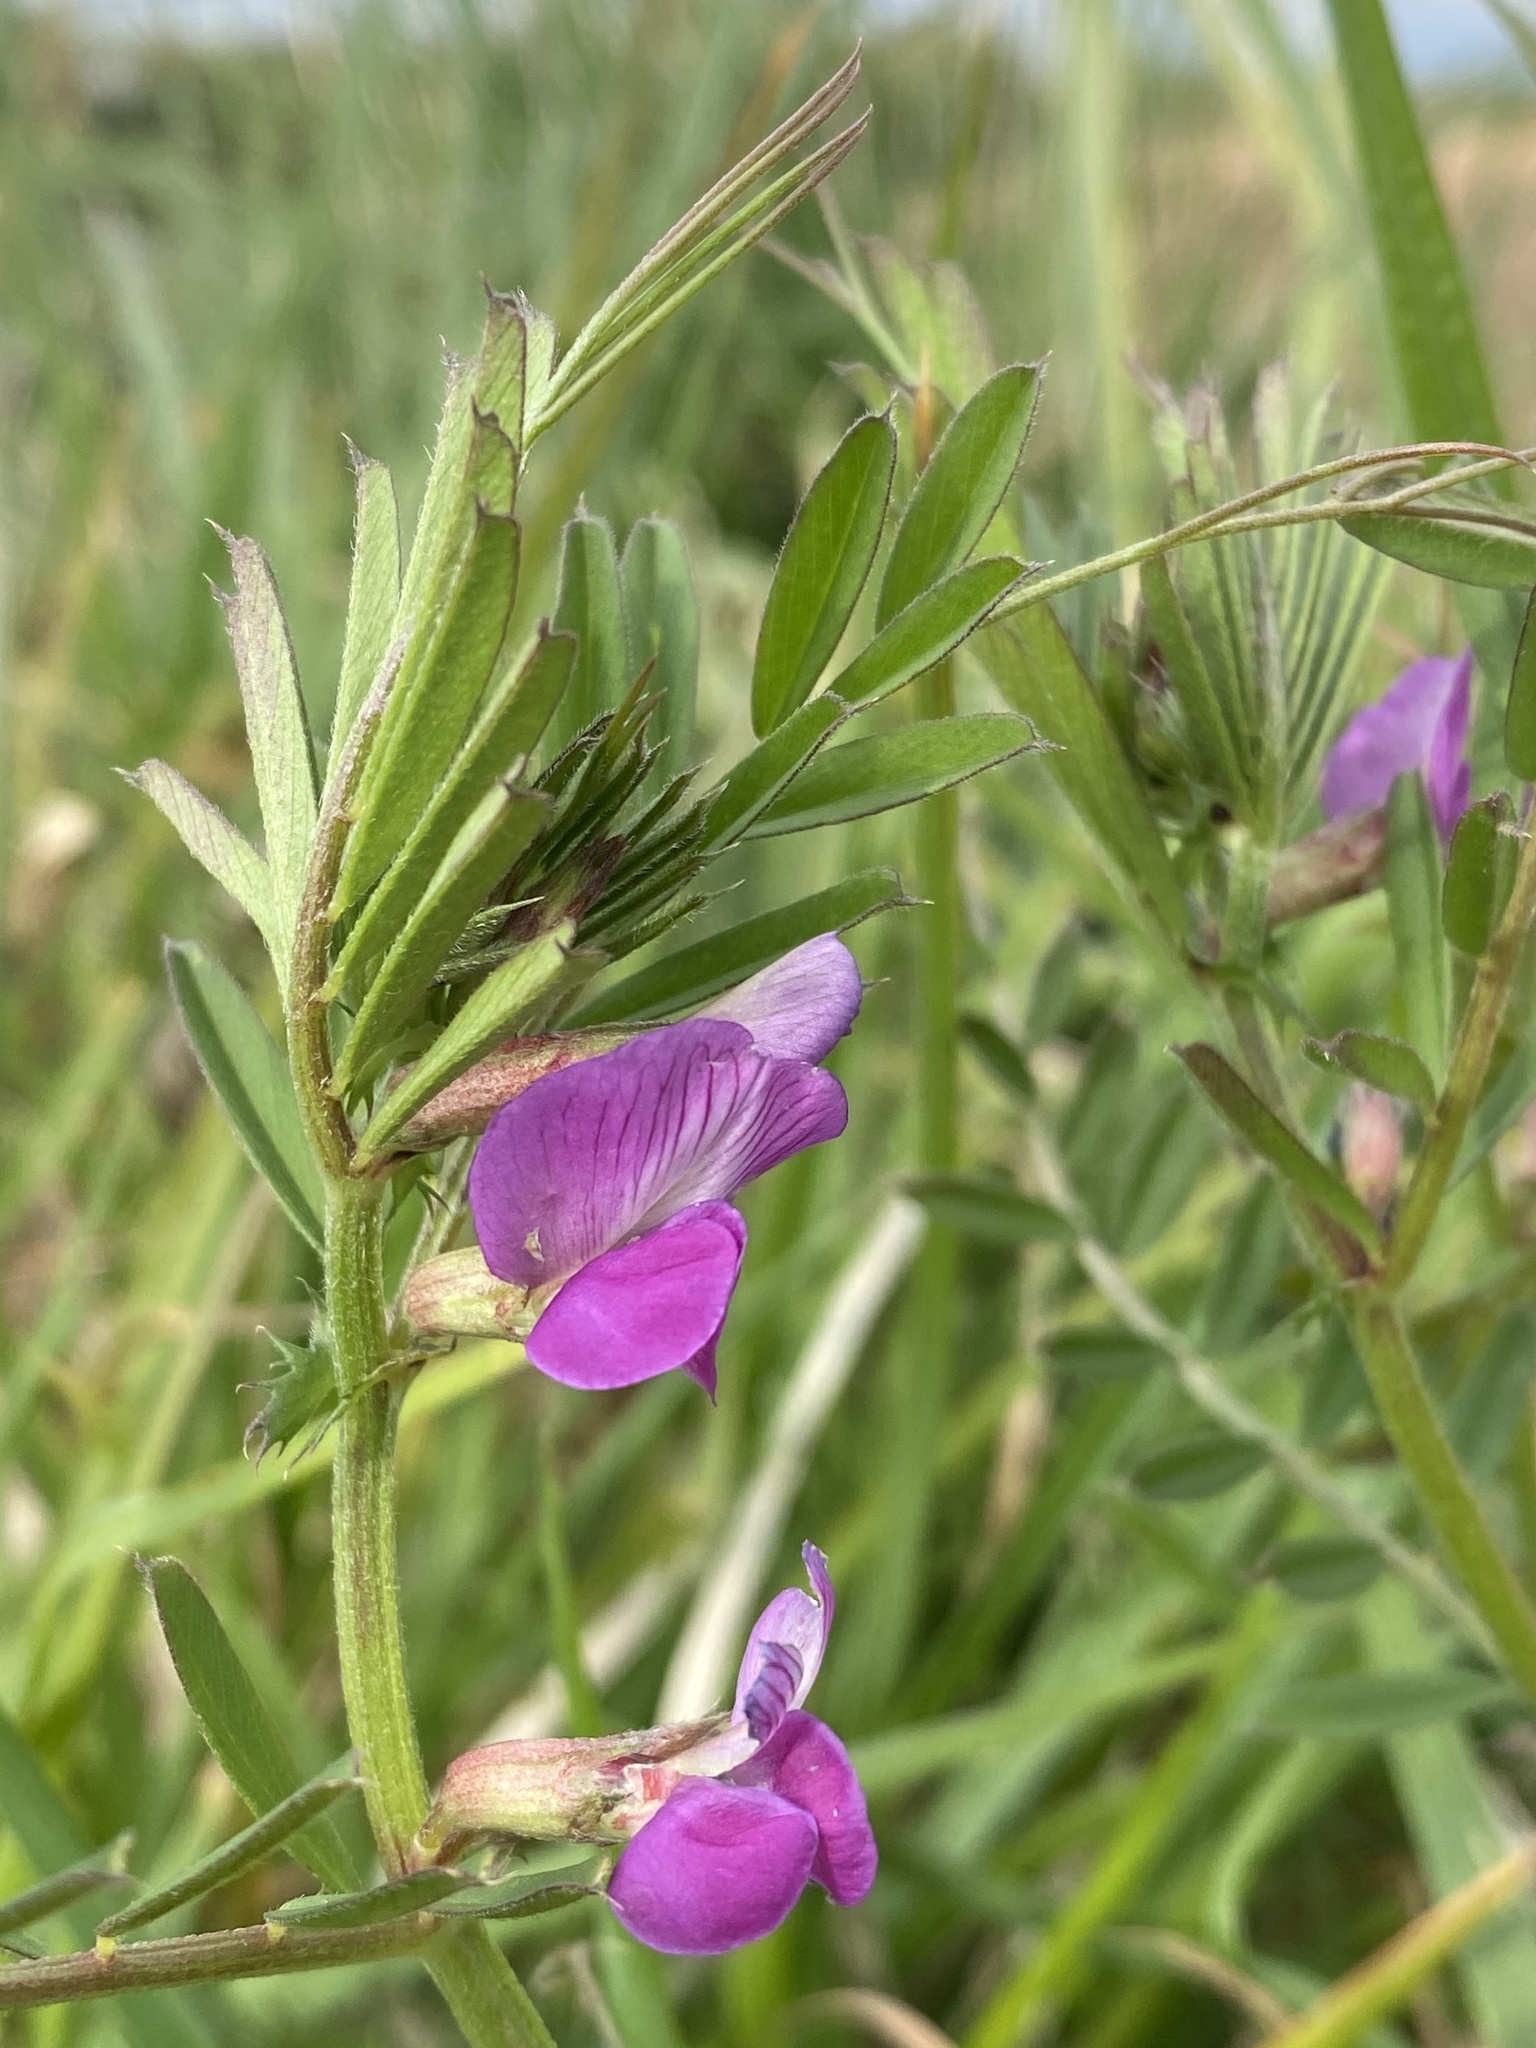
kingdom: Plantae
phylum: Tracheophyta
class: Magnoliopsida
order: Fabales
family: Fabaceae
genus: Vicia
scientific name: Vicia sativa
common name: Garden vetch
